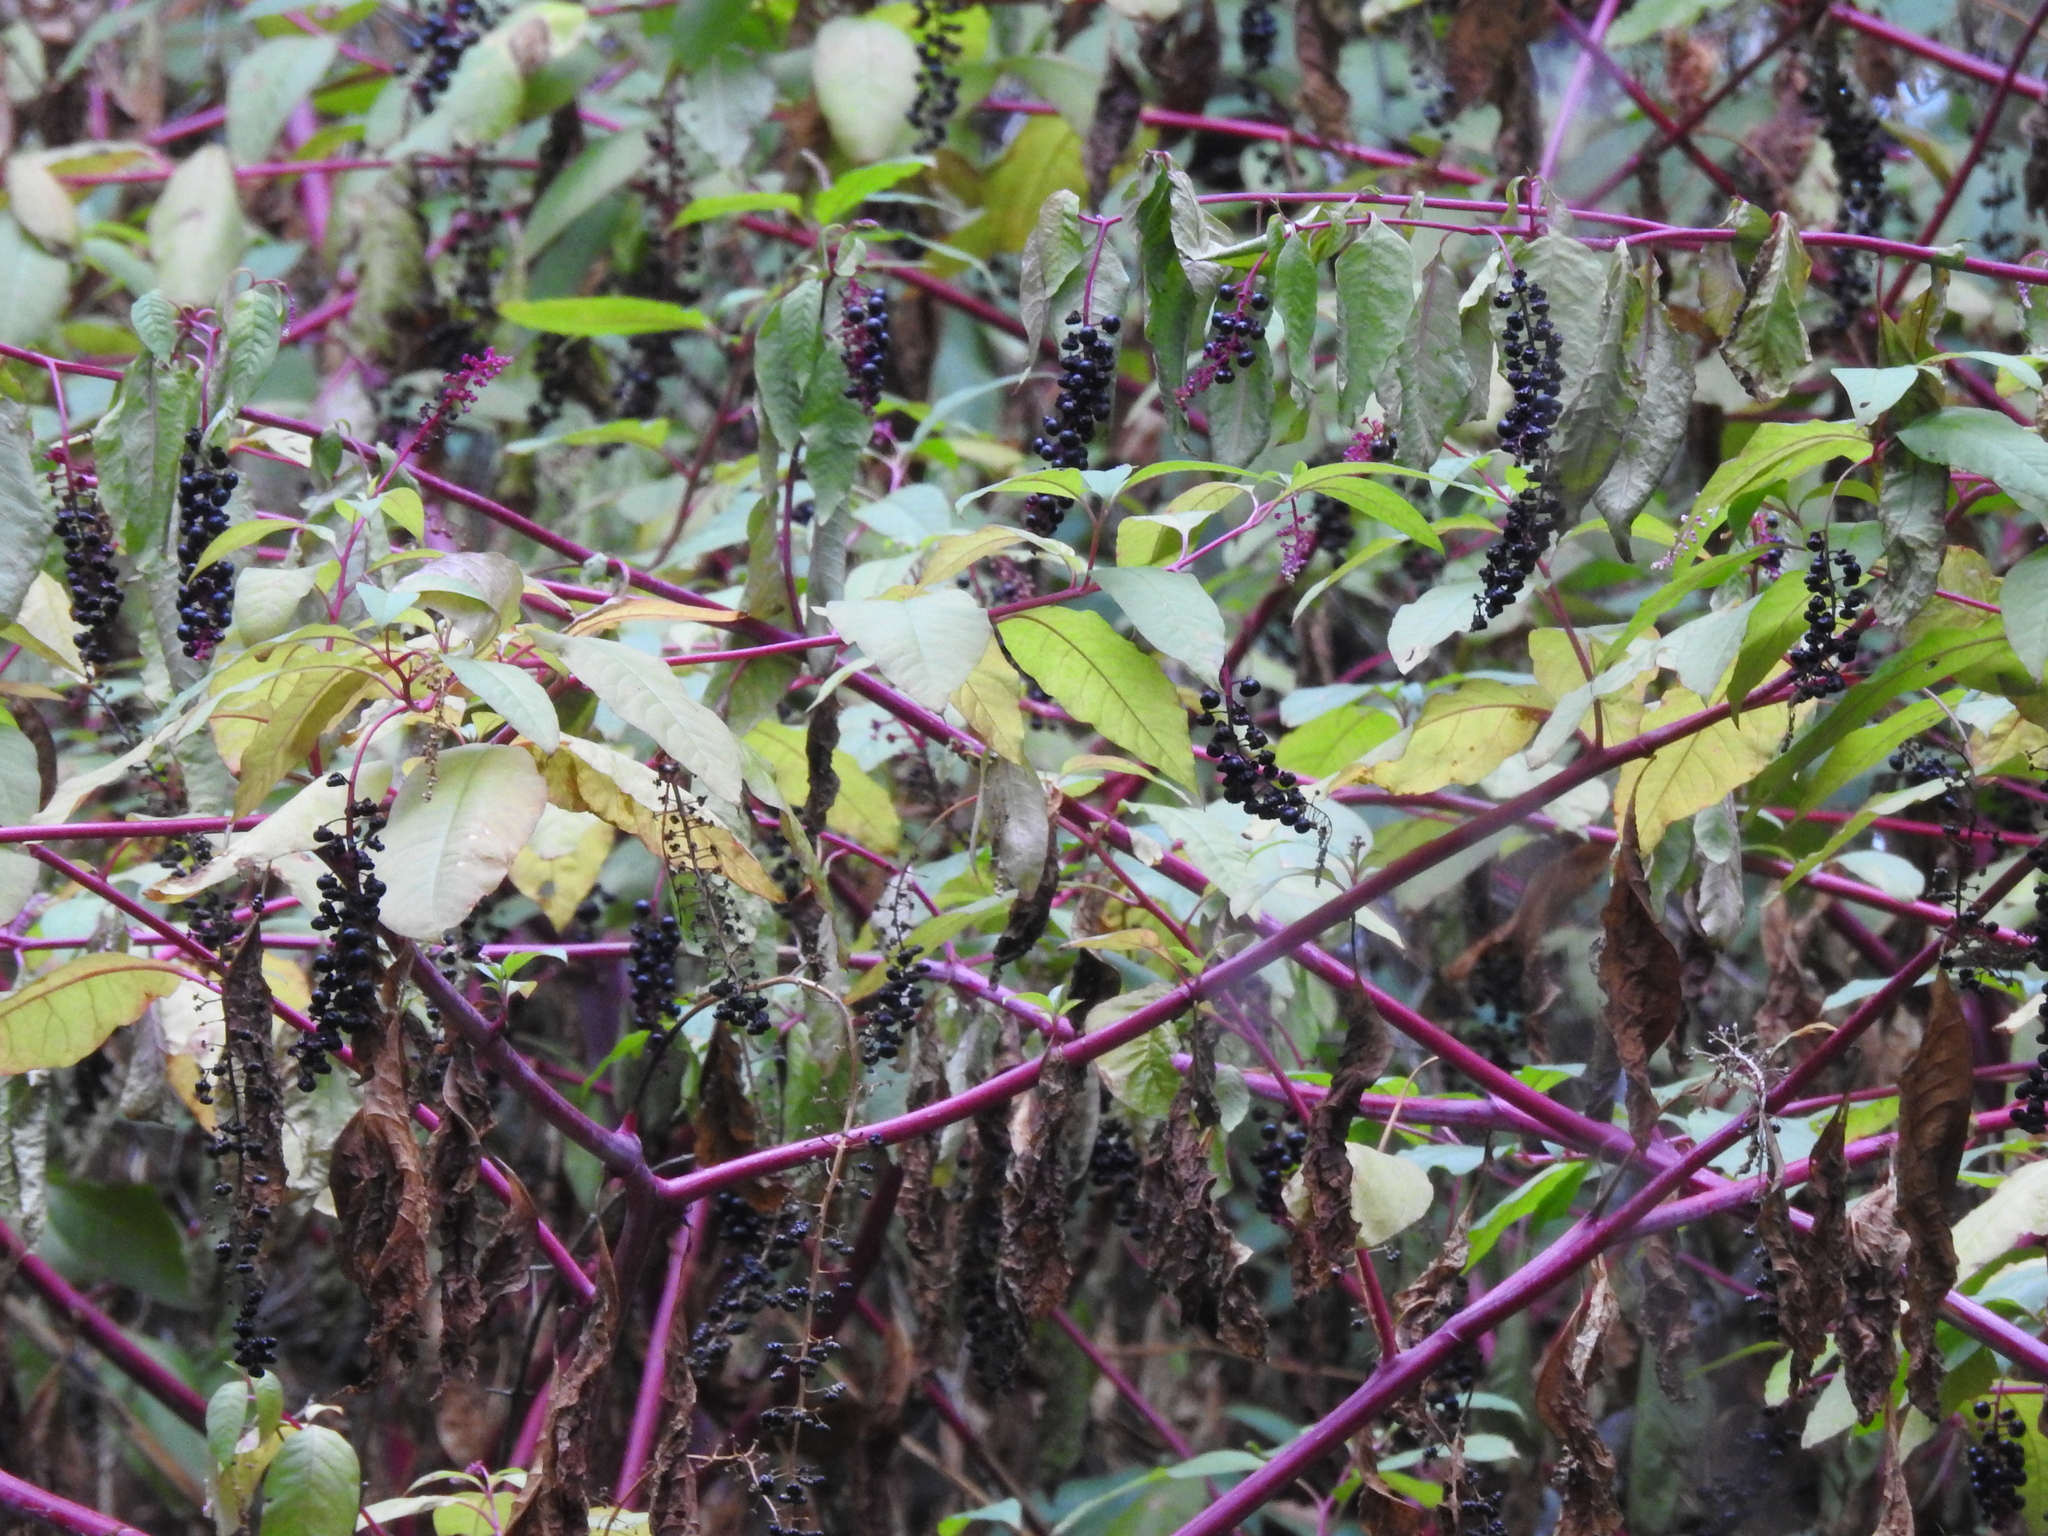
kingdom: Plantae
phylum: Tracheophyta
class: Magnoliopsida
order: Caryophyllales
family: Phytolaccaceae
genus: Phytolacca
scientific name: Phytolacca americana
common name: American pokeweed
